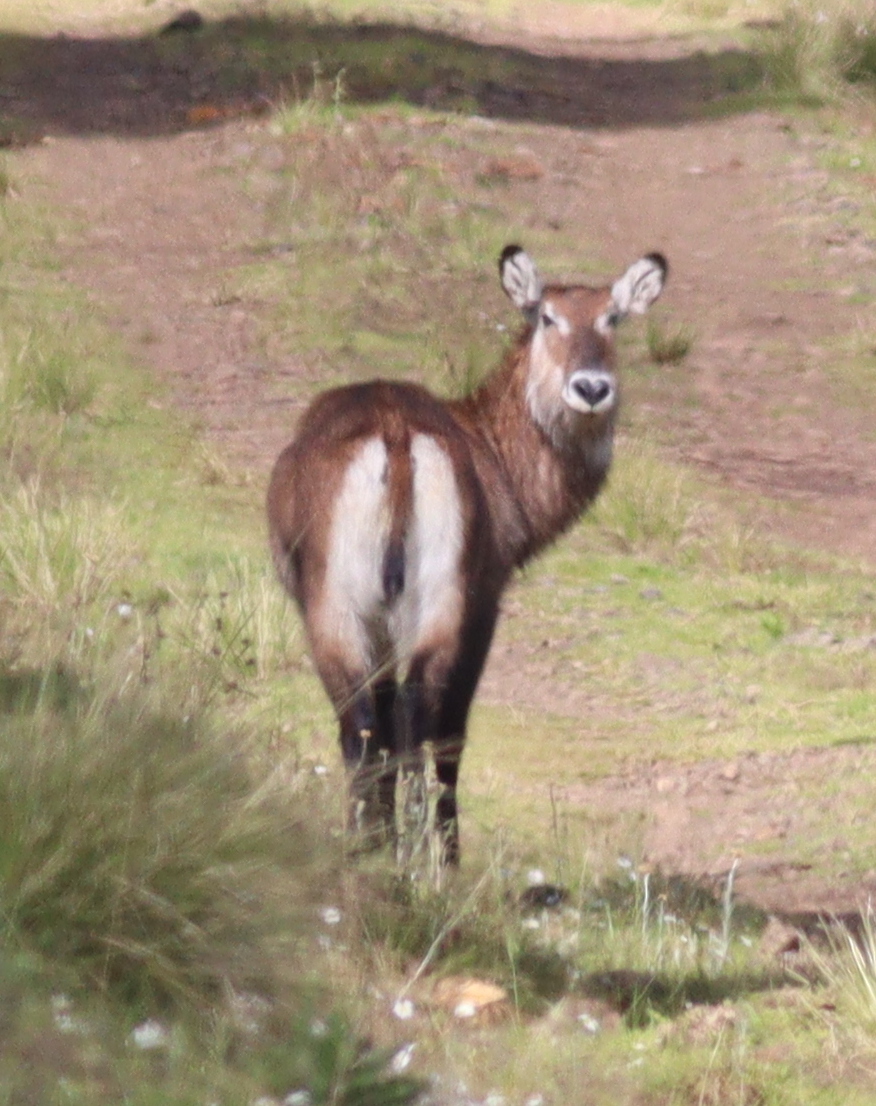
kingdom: Animalia
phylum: Chordata
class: Mammalia
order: Artiodactyla
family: Bovidae
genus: Kobus
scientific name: Kobus ellipsiprymnus
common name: Waterbuck
